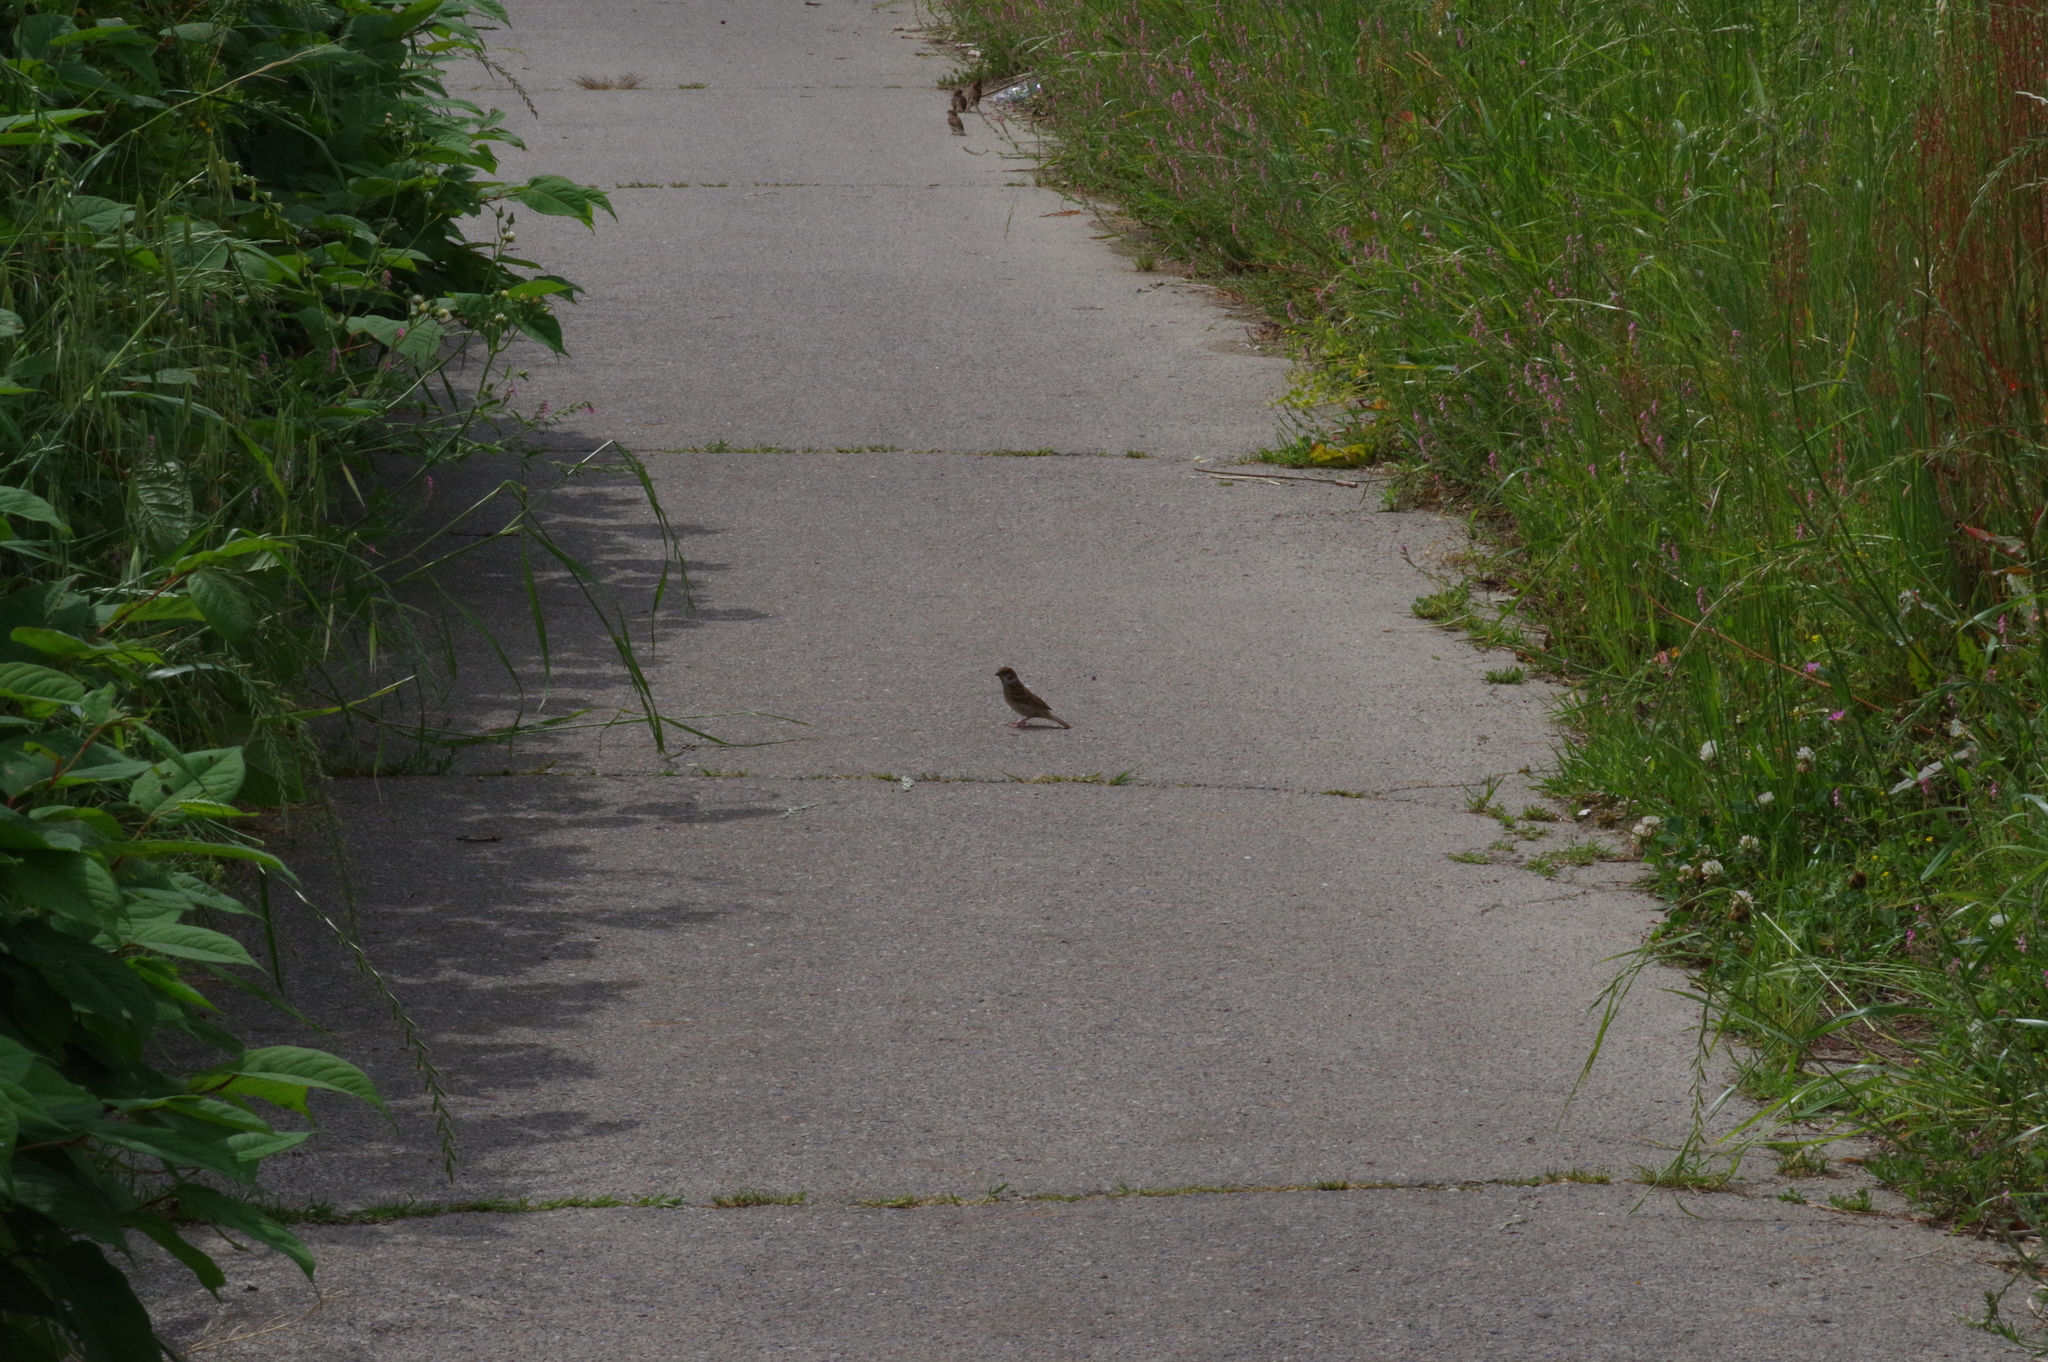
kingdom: Animalia
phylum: Chordata
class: Aves
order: Passeriformes
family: Passeridae
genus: Passer
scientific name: Passer montanus
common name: Eurasian tree sparrow
